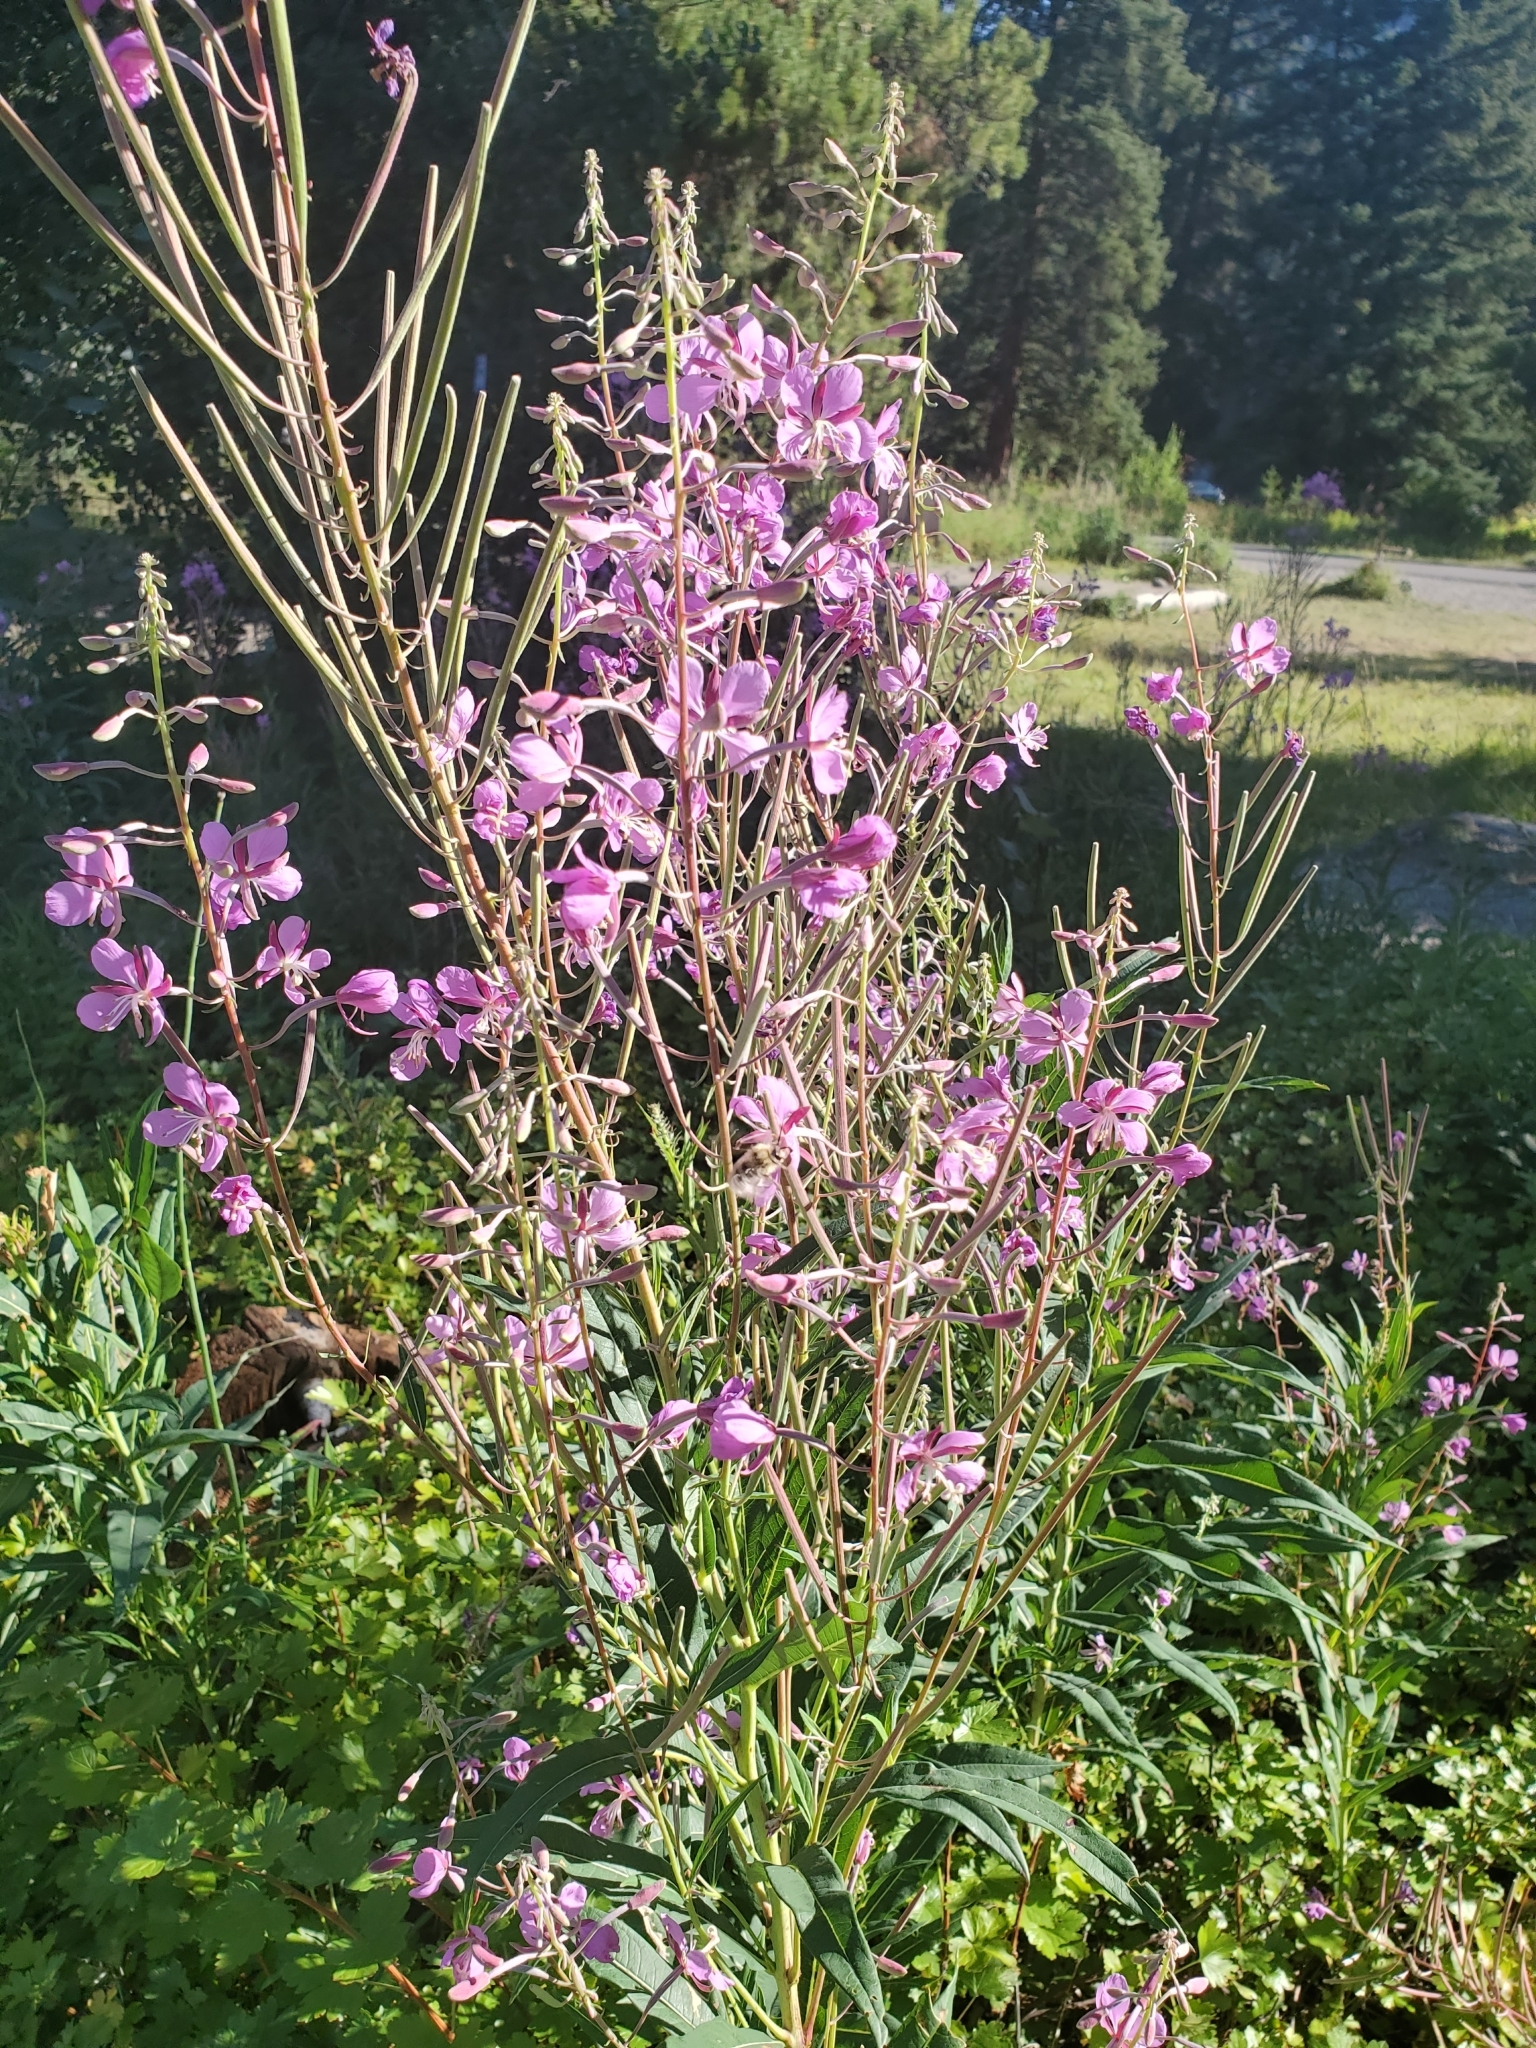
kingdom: Plantae
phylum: Tracheophyta
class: Magnoliopsida
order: Myrtales
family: Onagraceae
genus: Chamaenerion
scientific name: Chamaenerion angustifolium
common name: Fireweed
